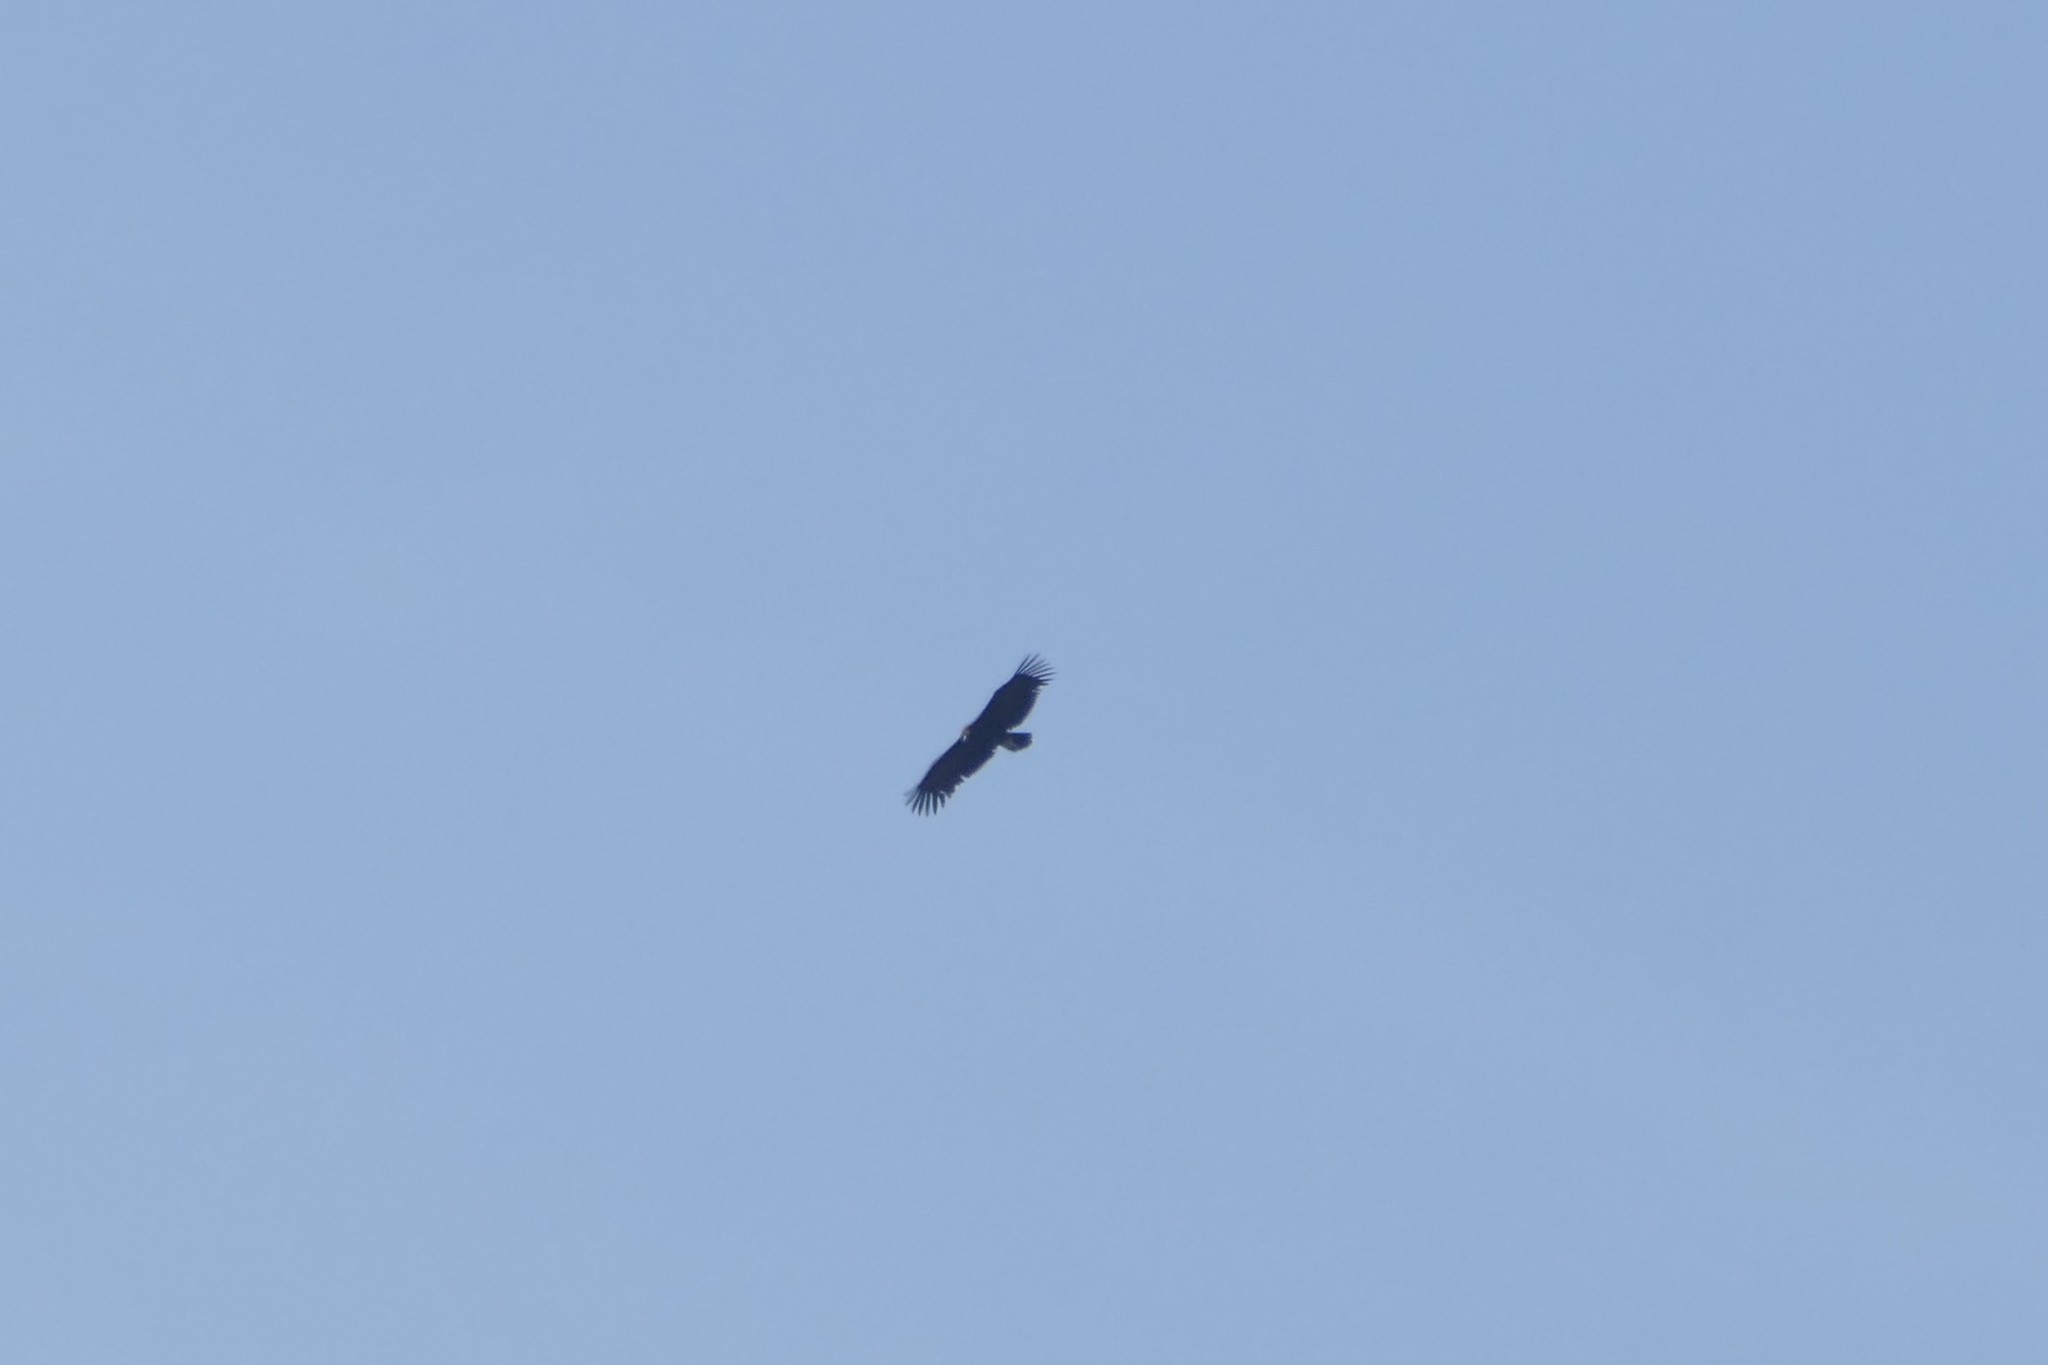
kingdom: Animalia
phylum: Chordata
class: Aves
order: Accipitriformes
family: Accipitridae
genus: Aegypius
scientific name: Aegypius monachus
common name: Cinereous vulture
